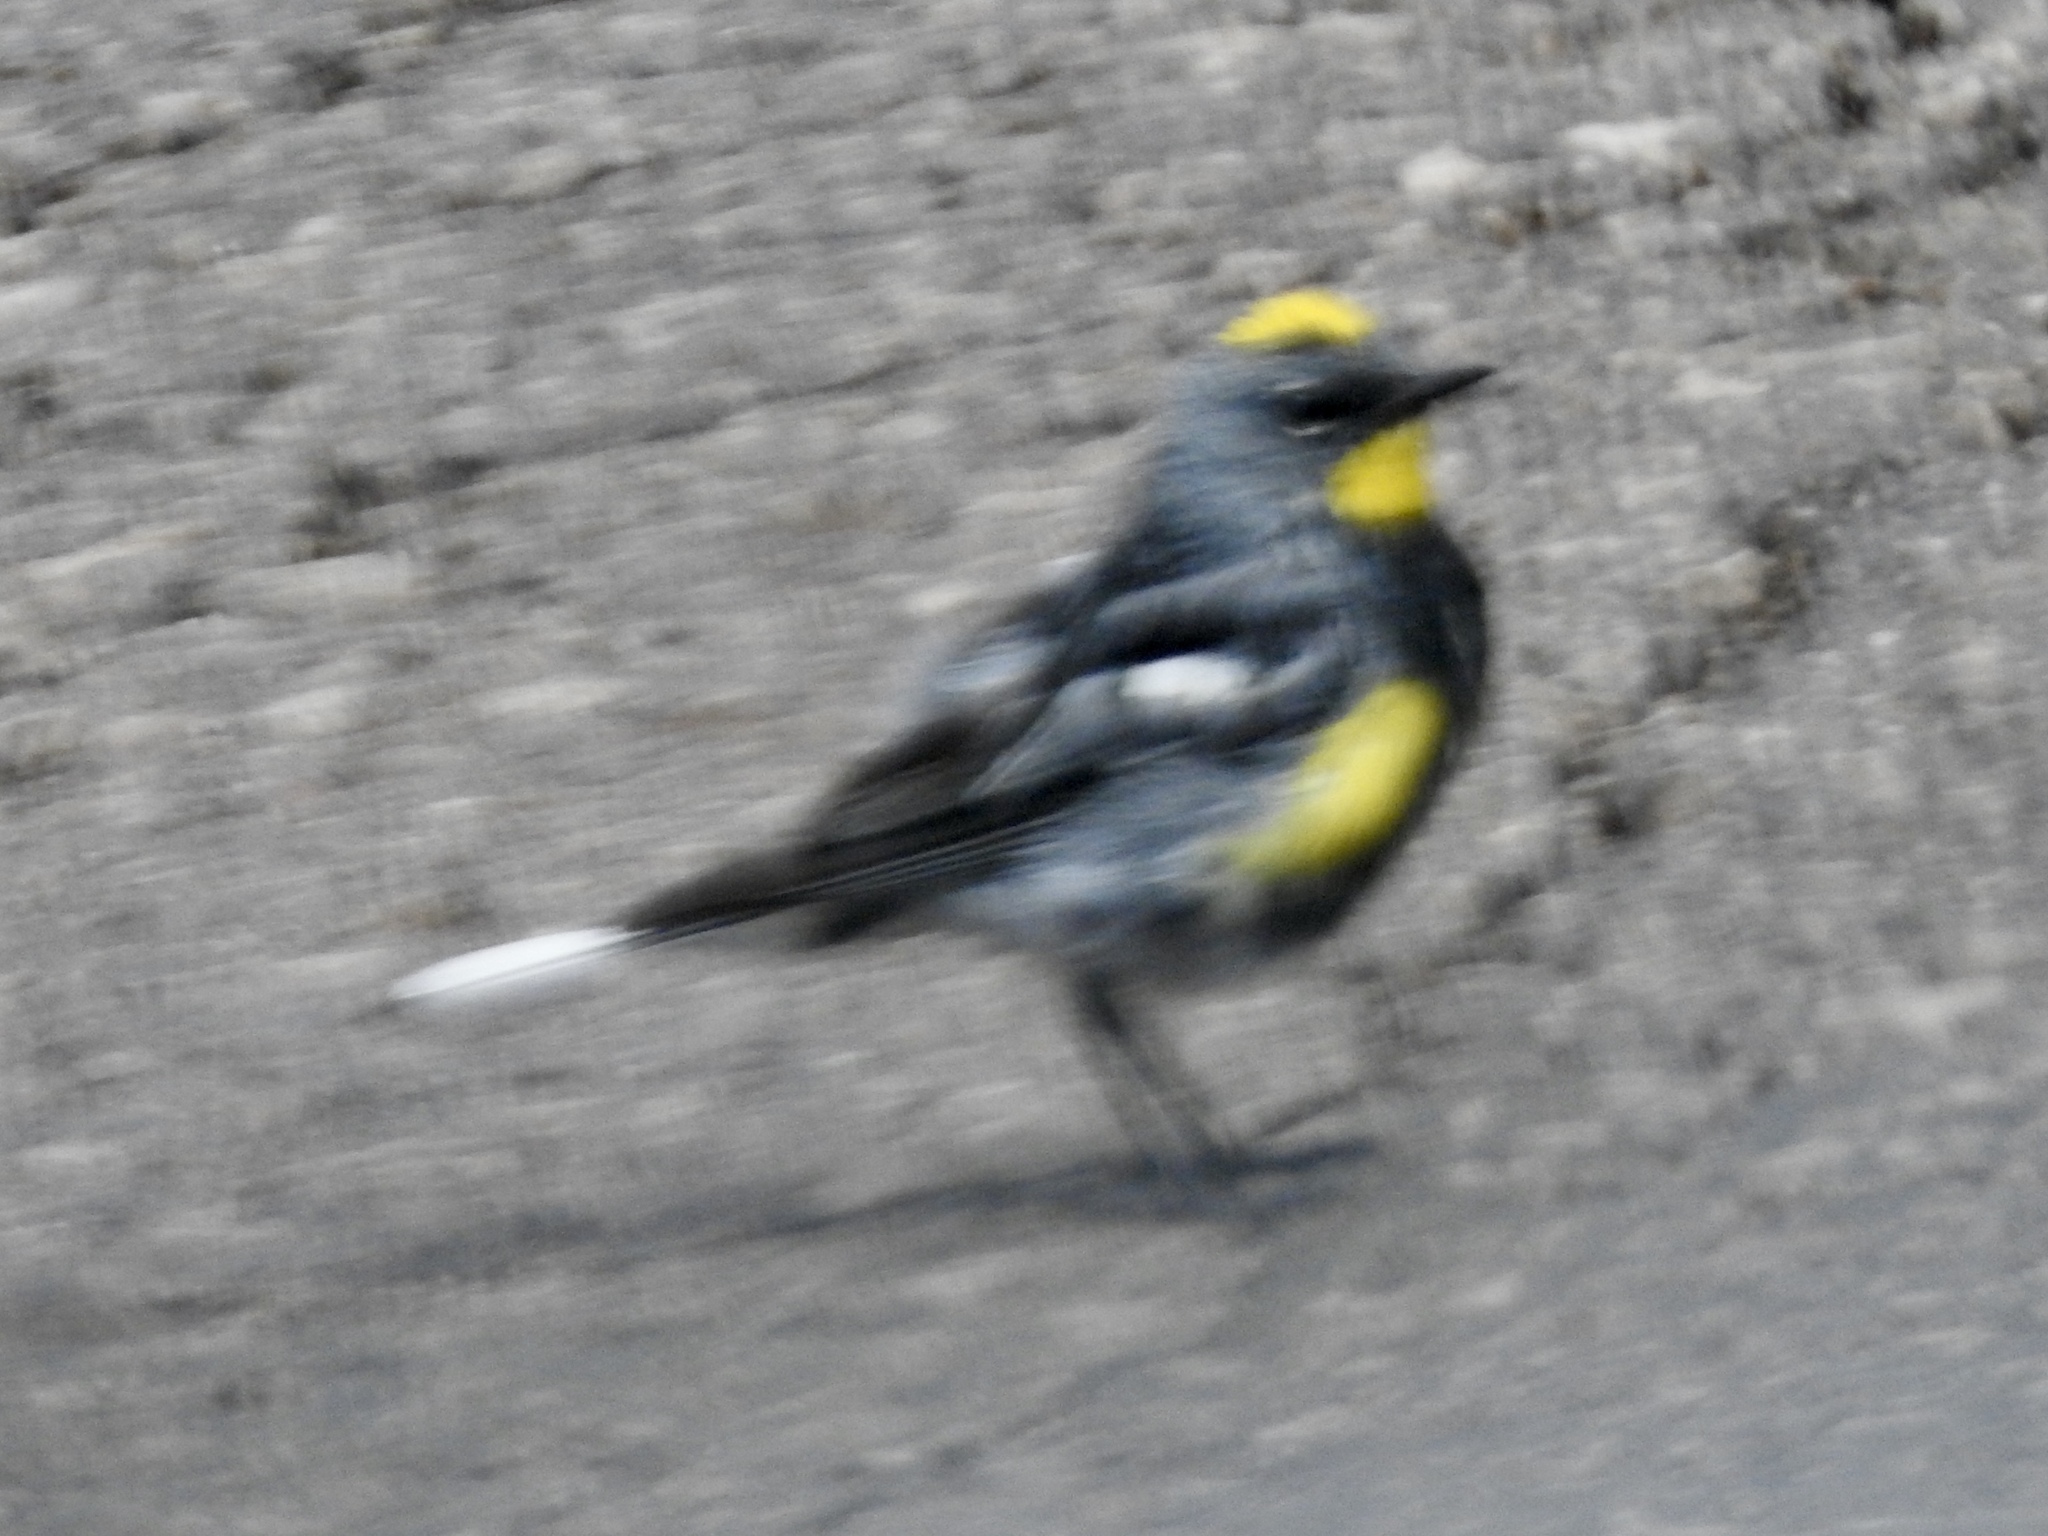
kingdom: Animalia
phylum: Chordata
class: Aves
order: Passeriformes
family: Parulidae
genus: Setophaga
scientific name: Setophaga coronata
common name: Myrtle warbler
